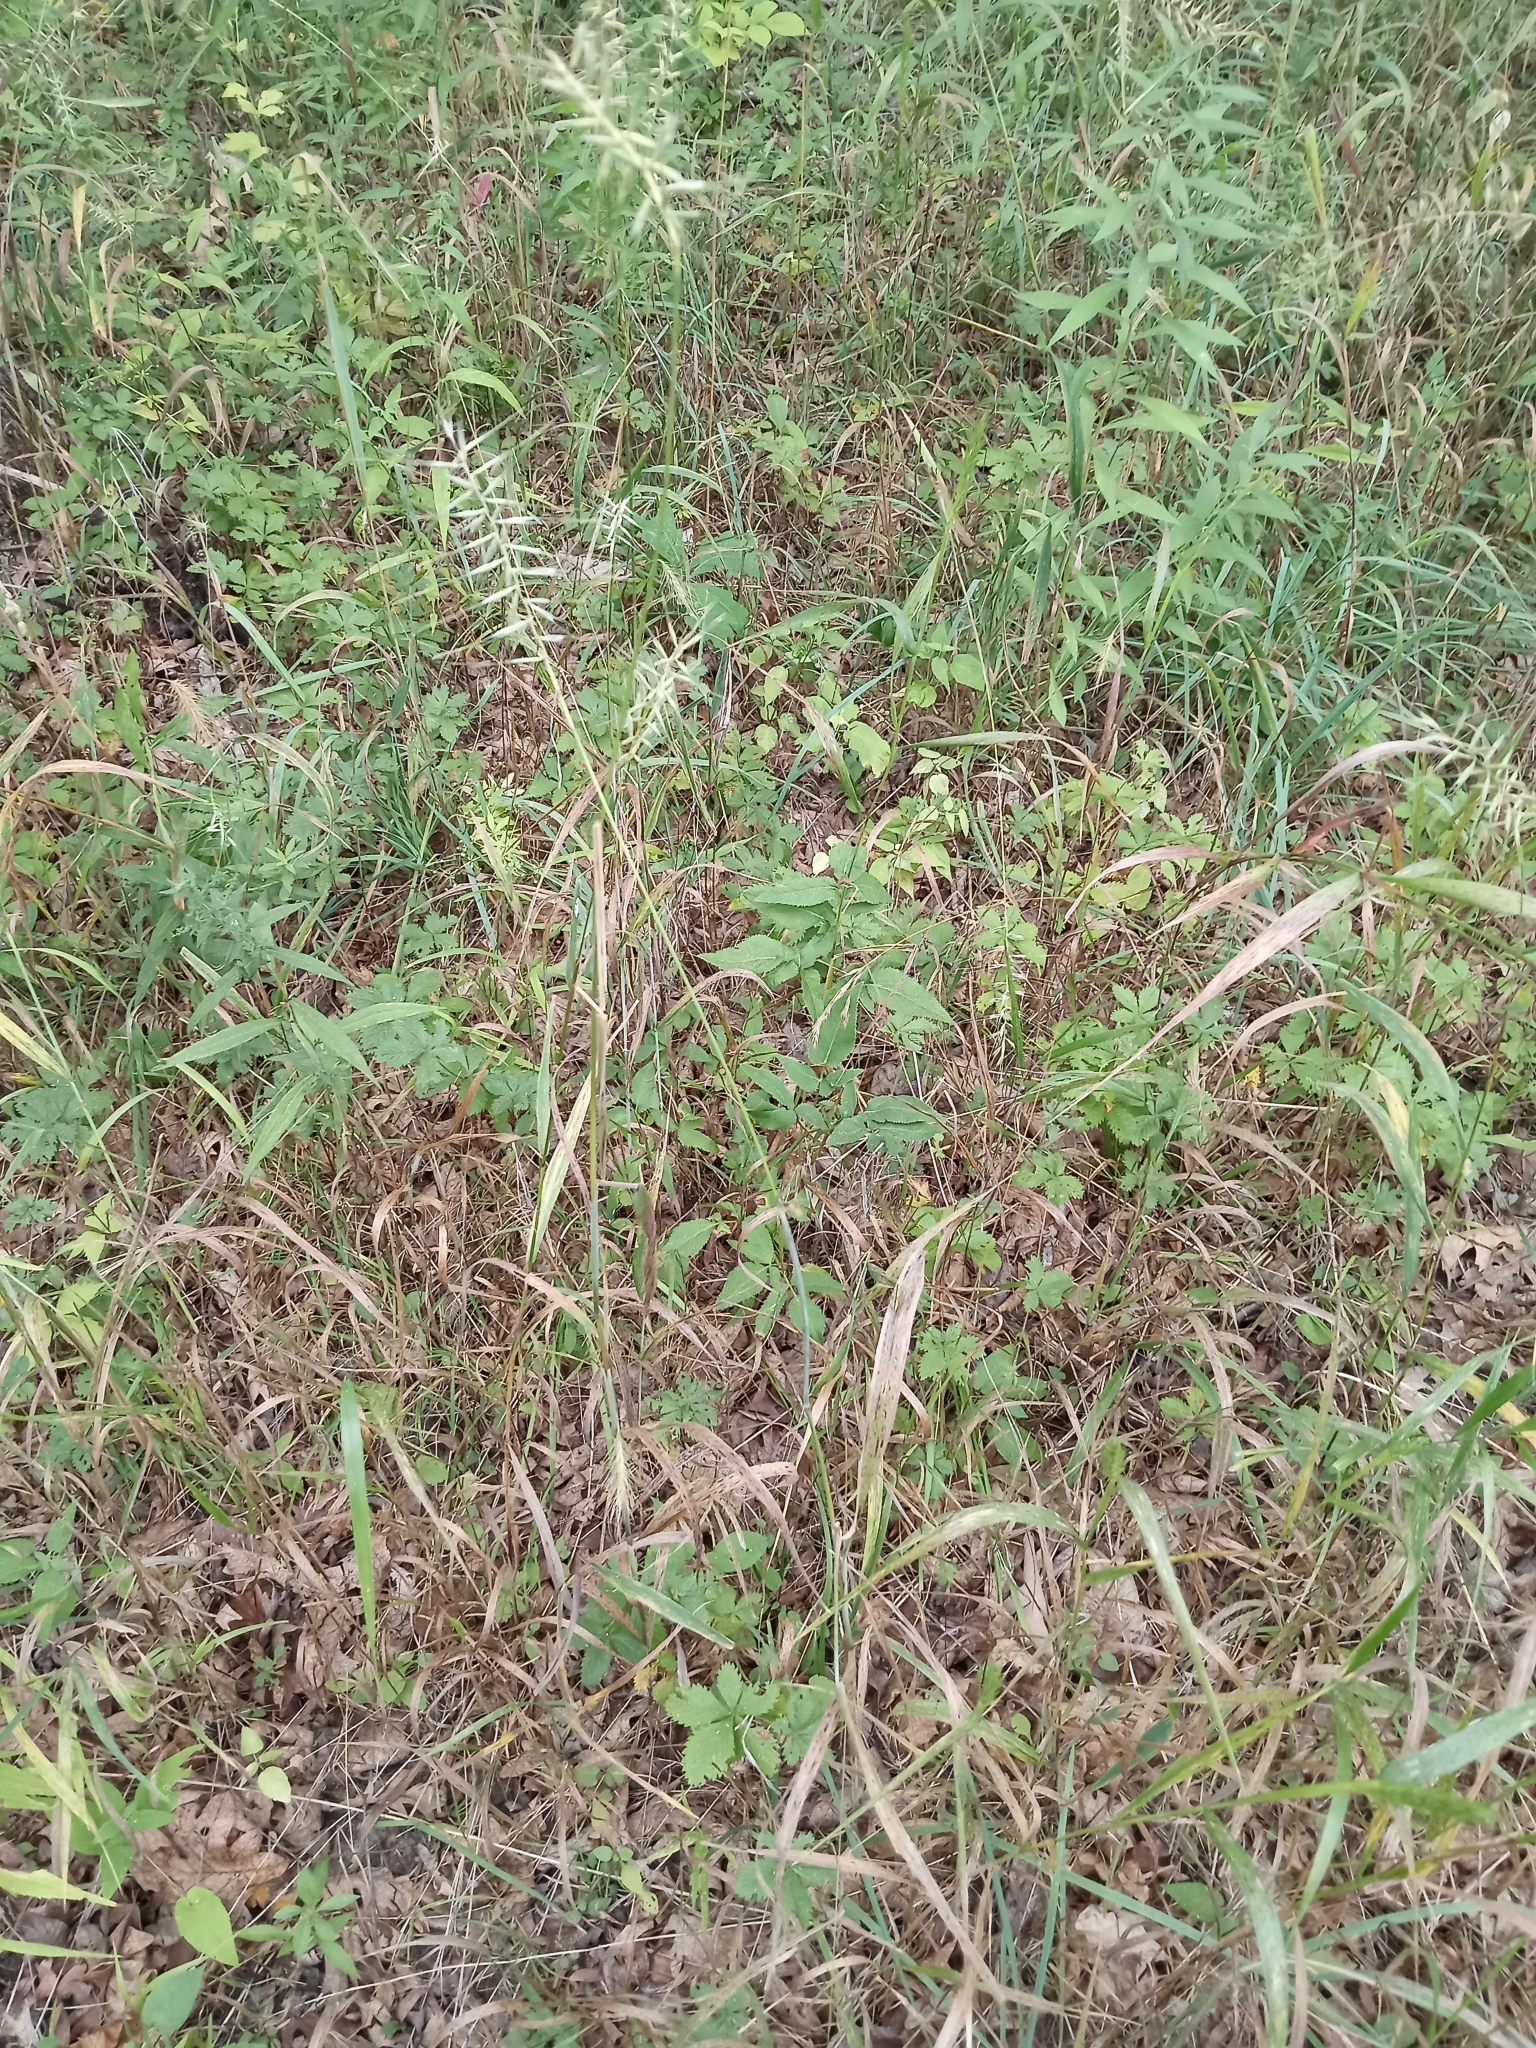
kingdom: Plantae
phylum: Tracheophyta
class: Liliopsida
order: Poales
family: Poaceae
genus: Elymus
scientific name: Elymus hystrix
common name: Bottlebrush grass
